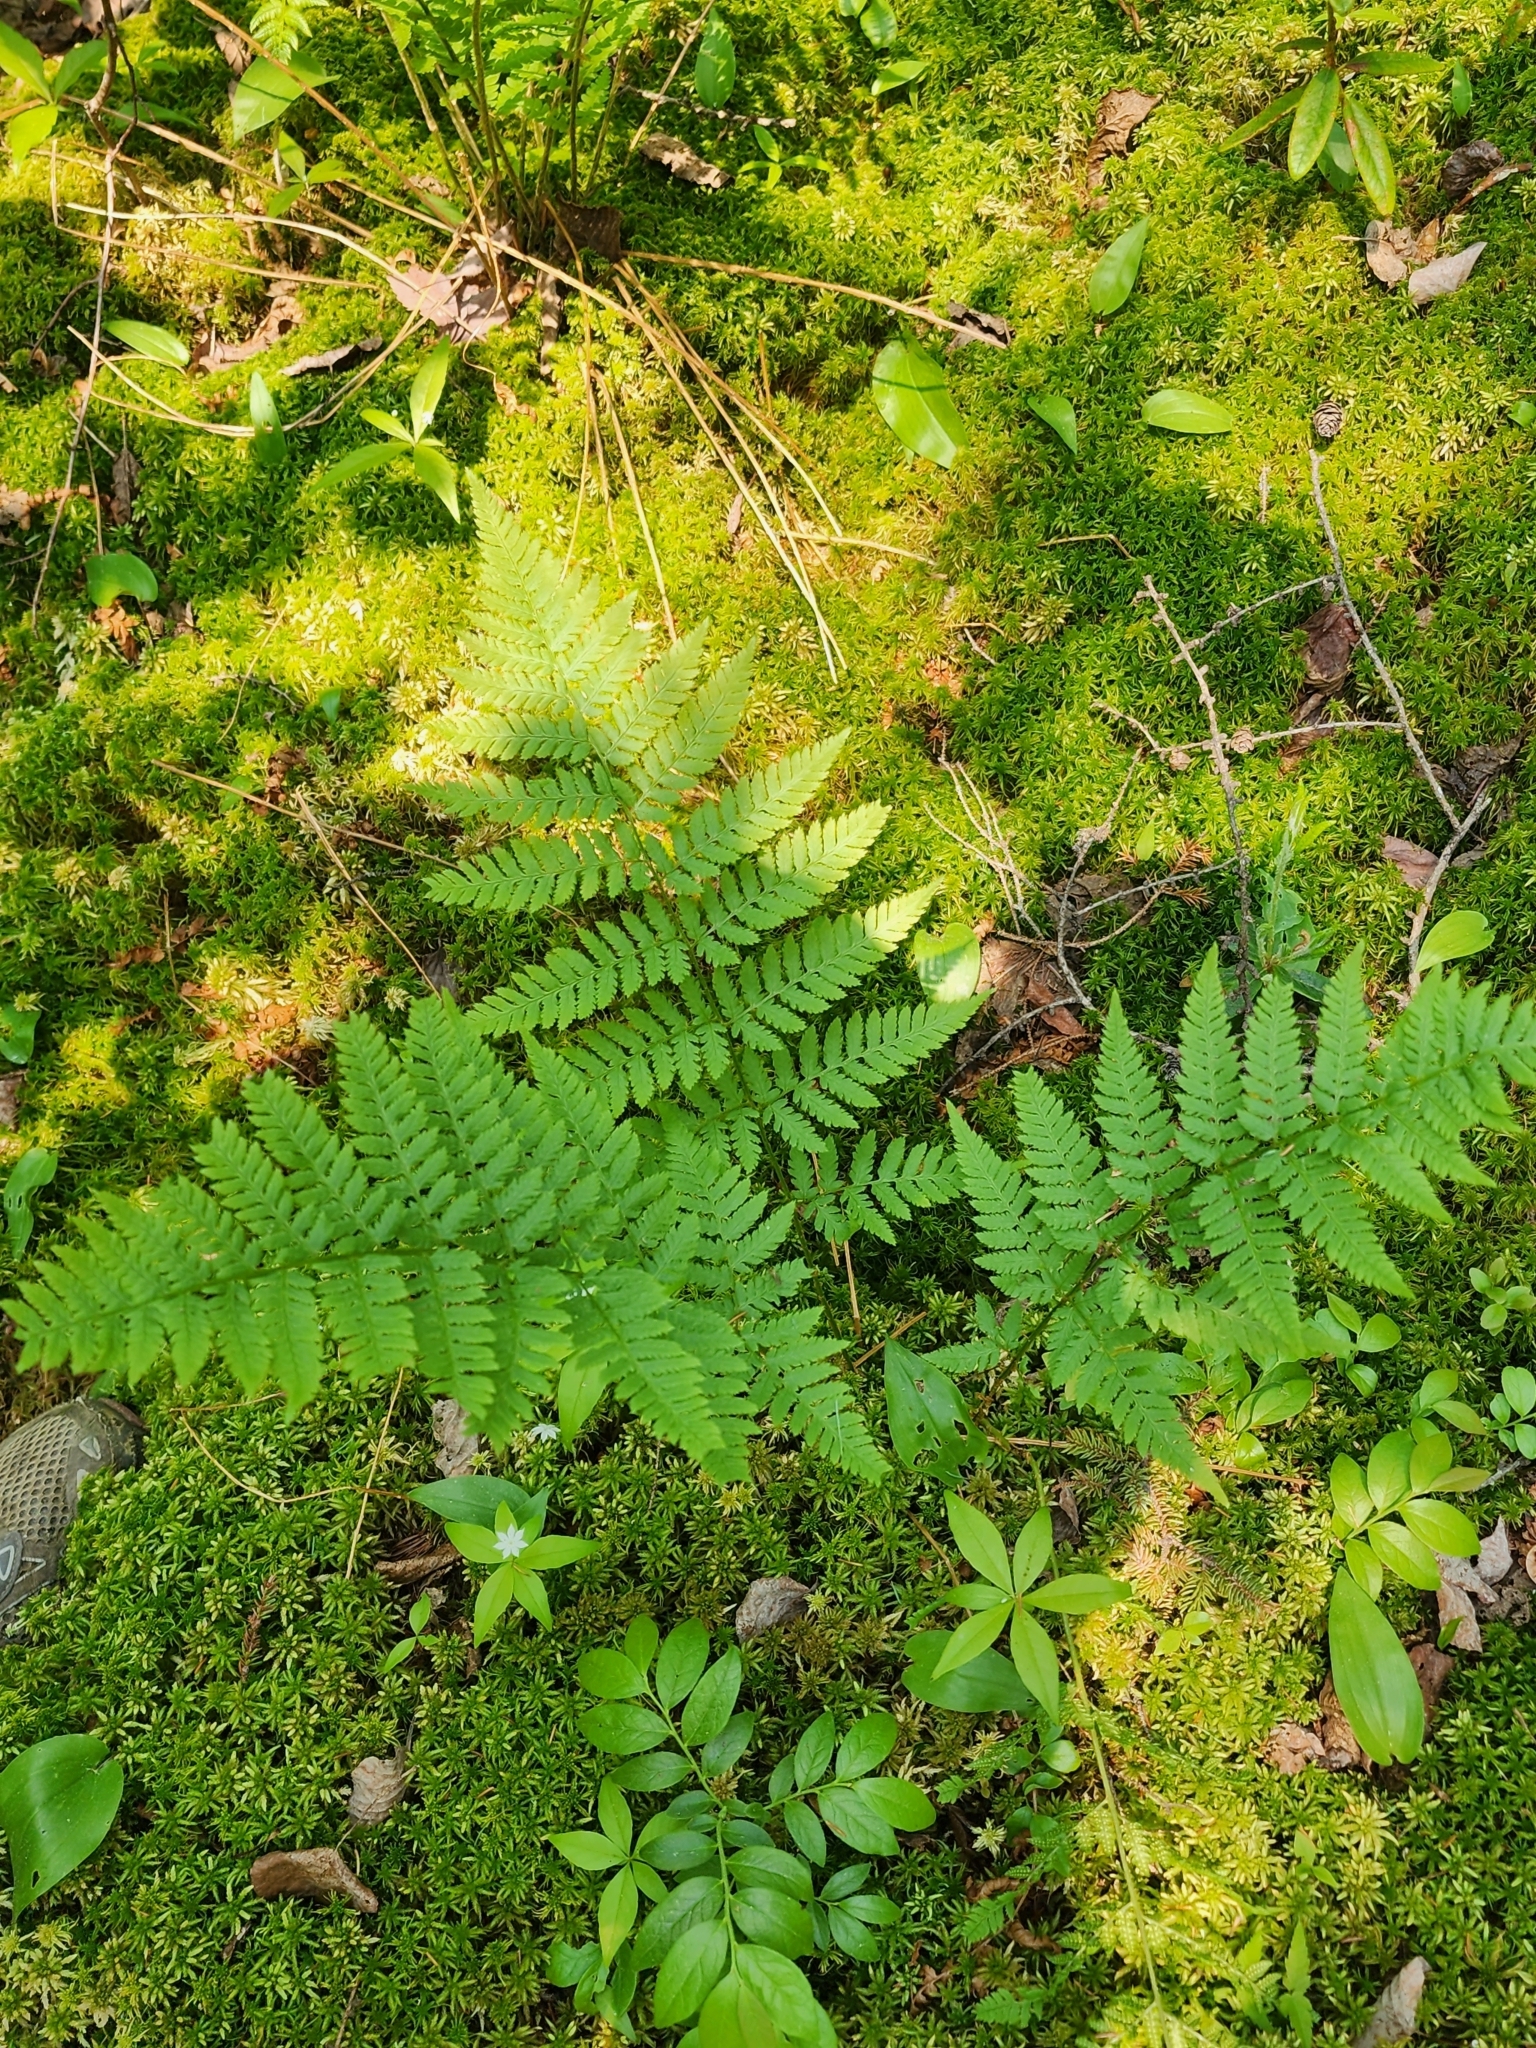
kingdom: Plantae
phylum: Tracheophyta
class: Polypodiopsida
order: Polypodiales
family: Dryopteridaceae
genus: Dryopteris
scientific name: Dryopteris carthusiana
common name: Narrow buckler-fern
